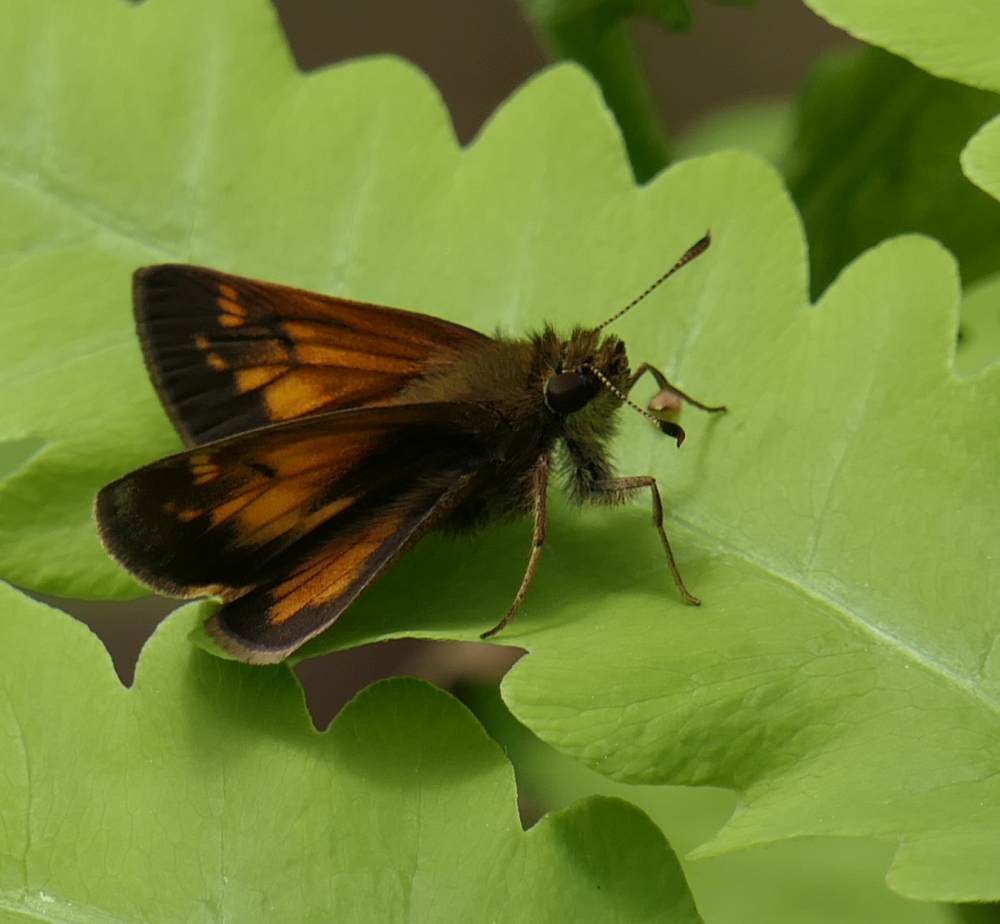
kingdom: Animalia
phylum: Arthropoda
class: Insecta
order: Lepidoptera
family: Hesperiidae
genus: Lon
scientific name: Lon hobomok
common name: Hobomok skipper
